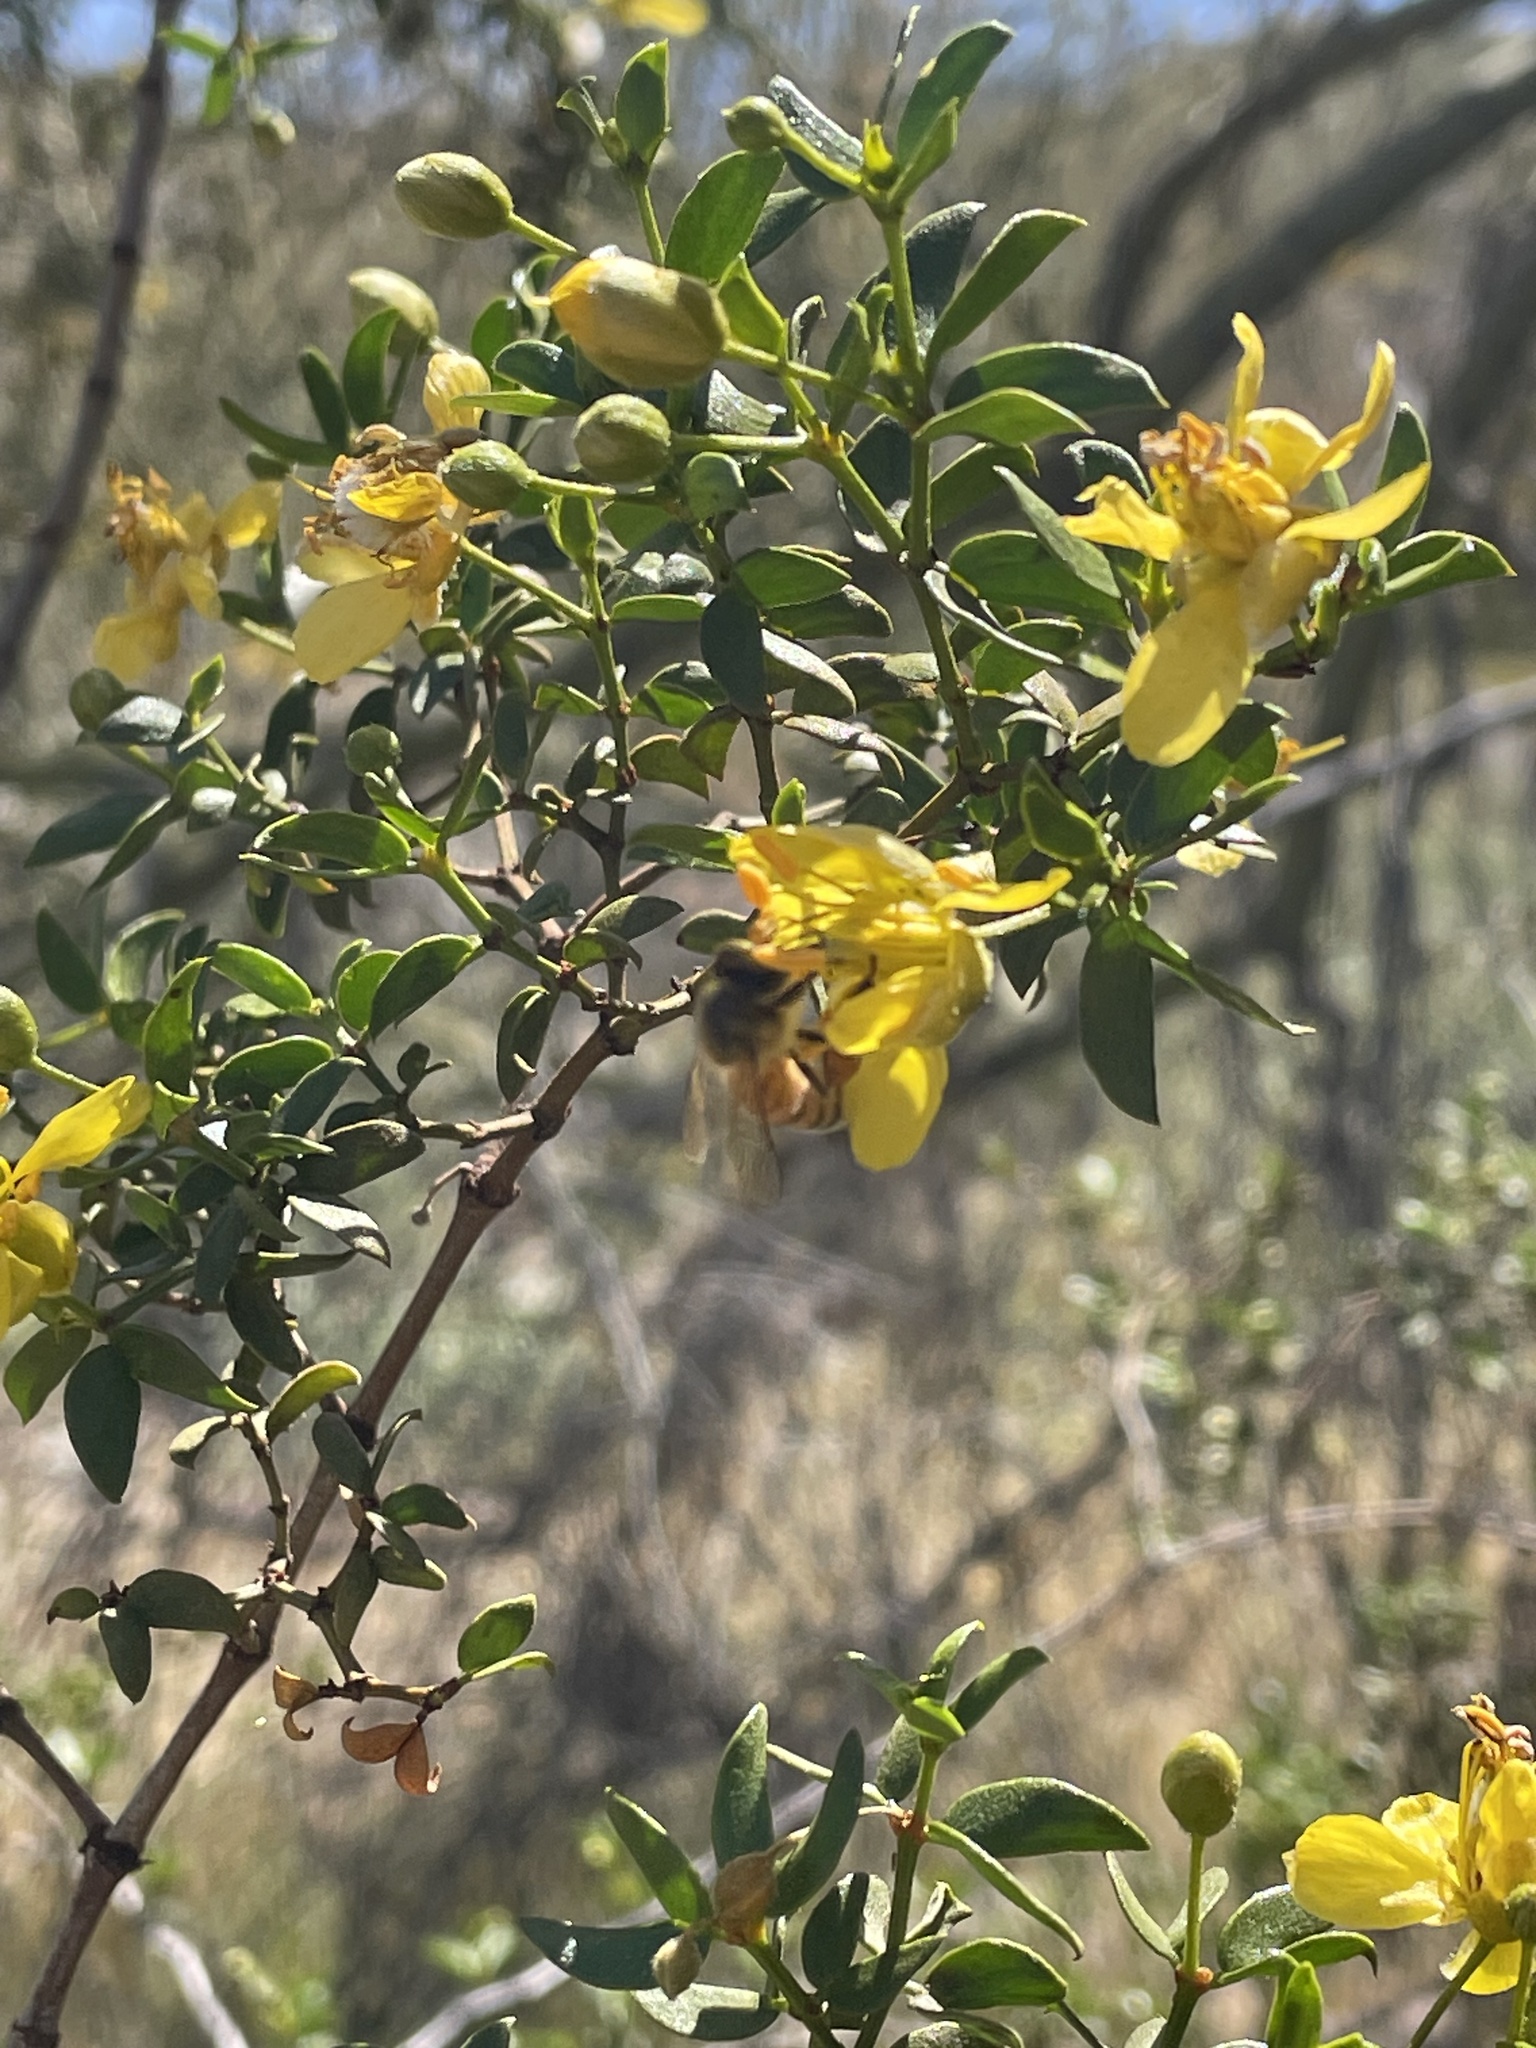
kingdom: Plantae
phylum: Tracheophyta
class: Magnoliopsida
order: Zygophyllales
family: Zygophyllaceae
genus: Larrea
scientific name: Larrea tridentata
